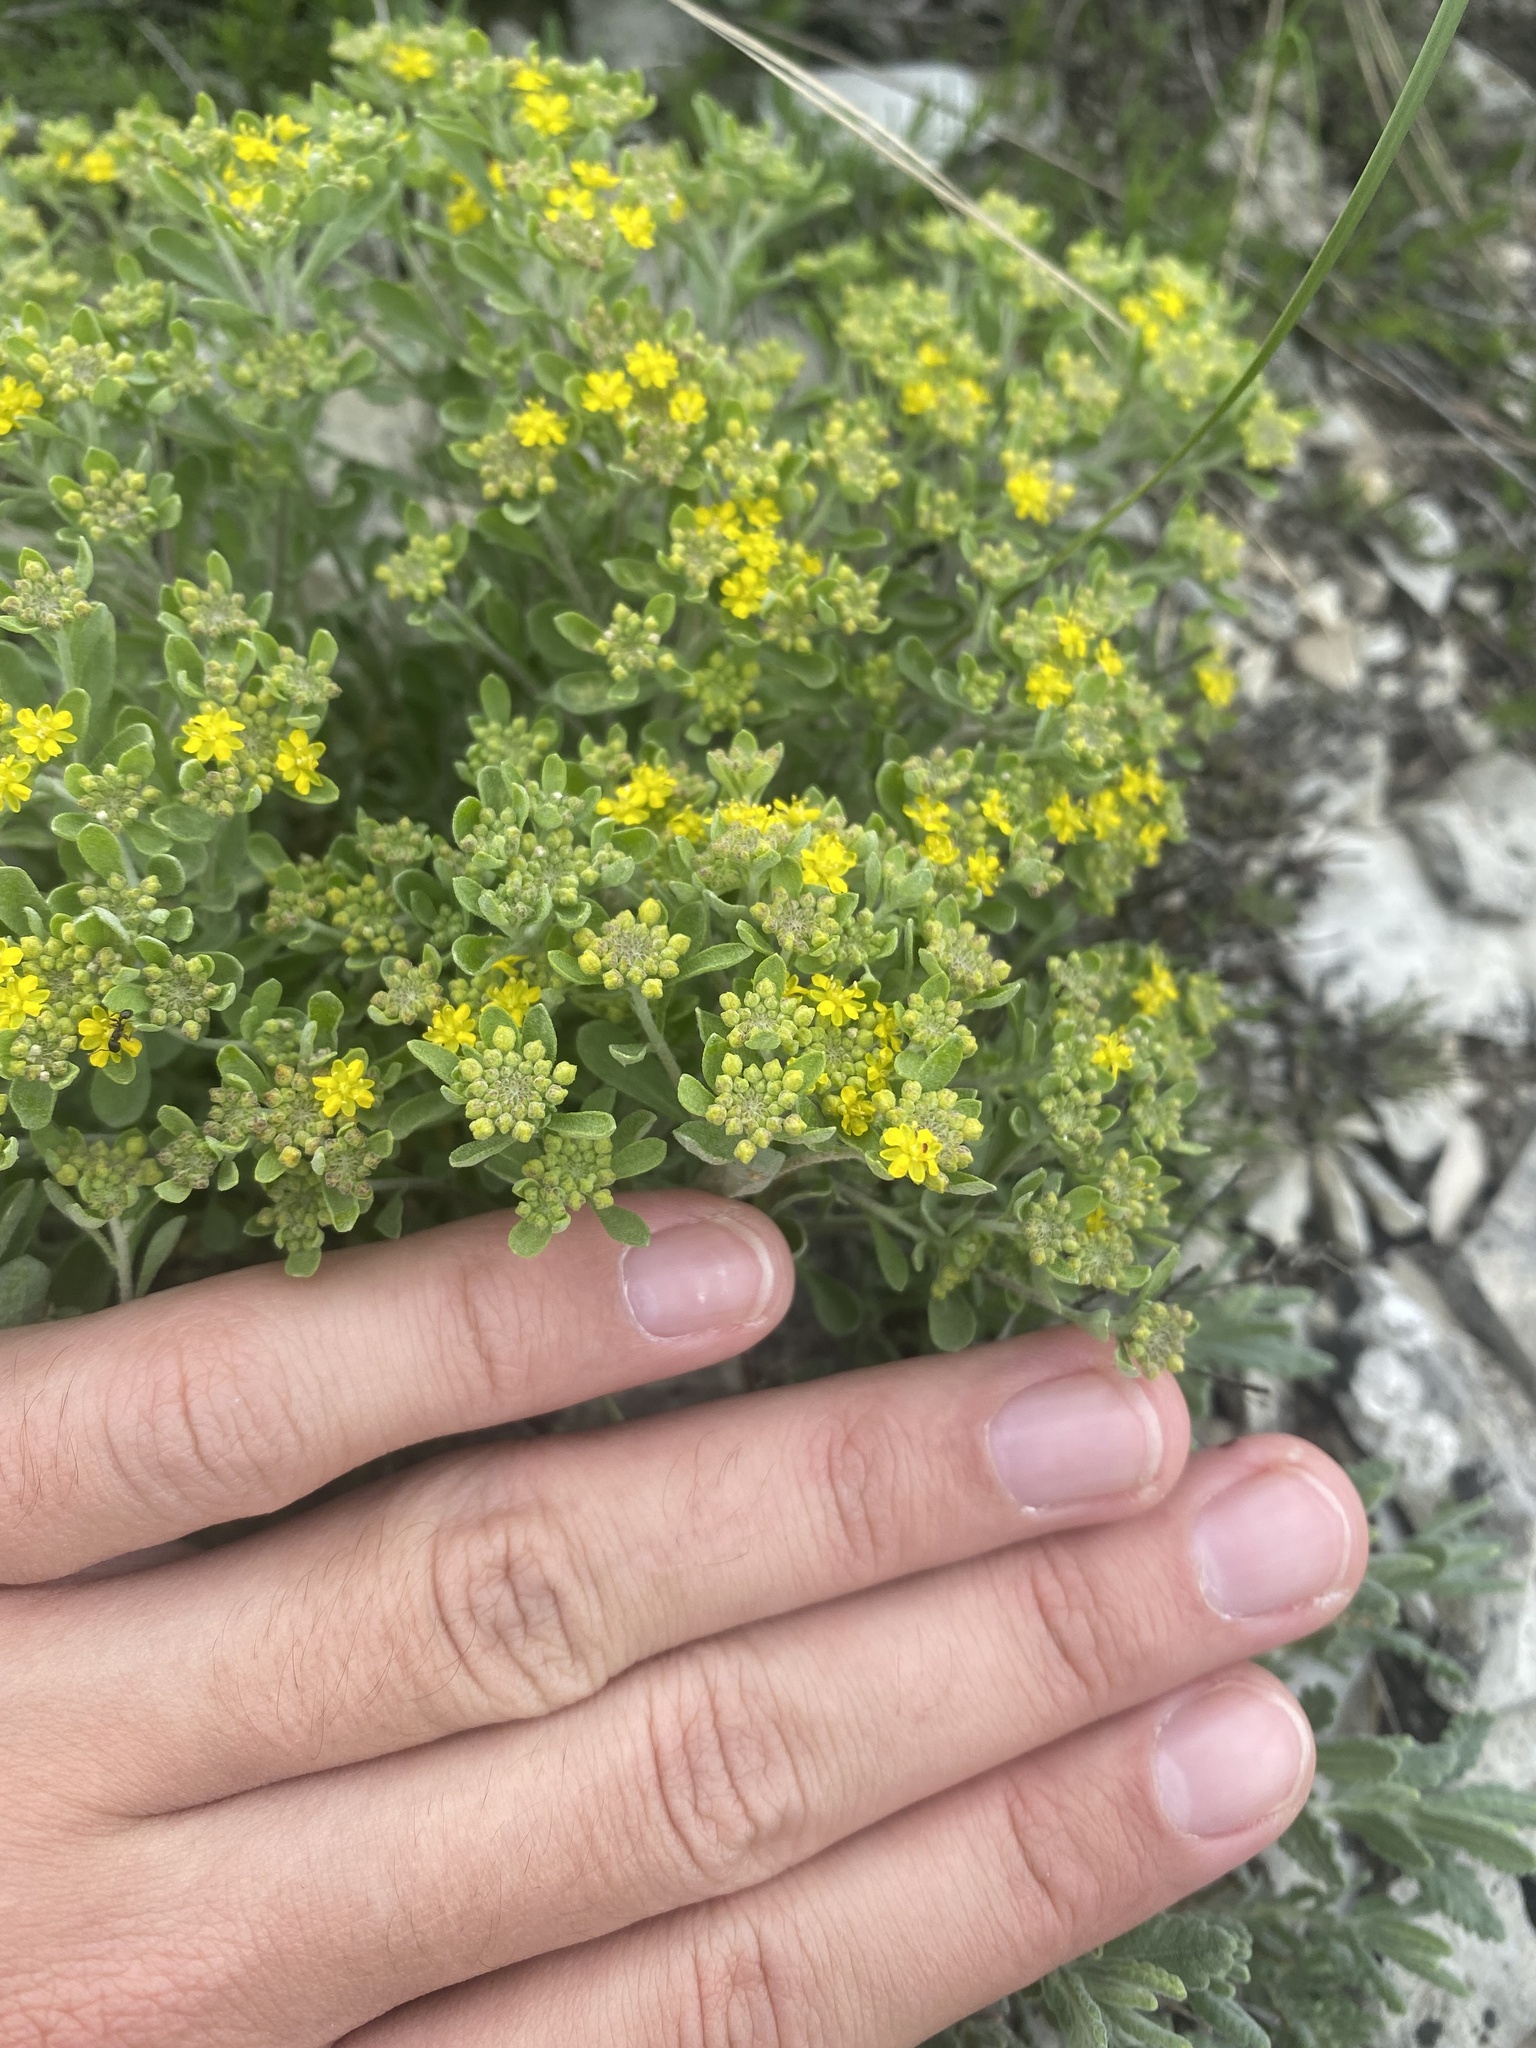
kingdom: Plantae
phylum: Tracheophyta
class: Magnoliopsida
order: Brassicales
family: Brassicaceae
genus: Odontarrhena
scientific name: Odontarrhena obtusifolia
